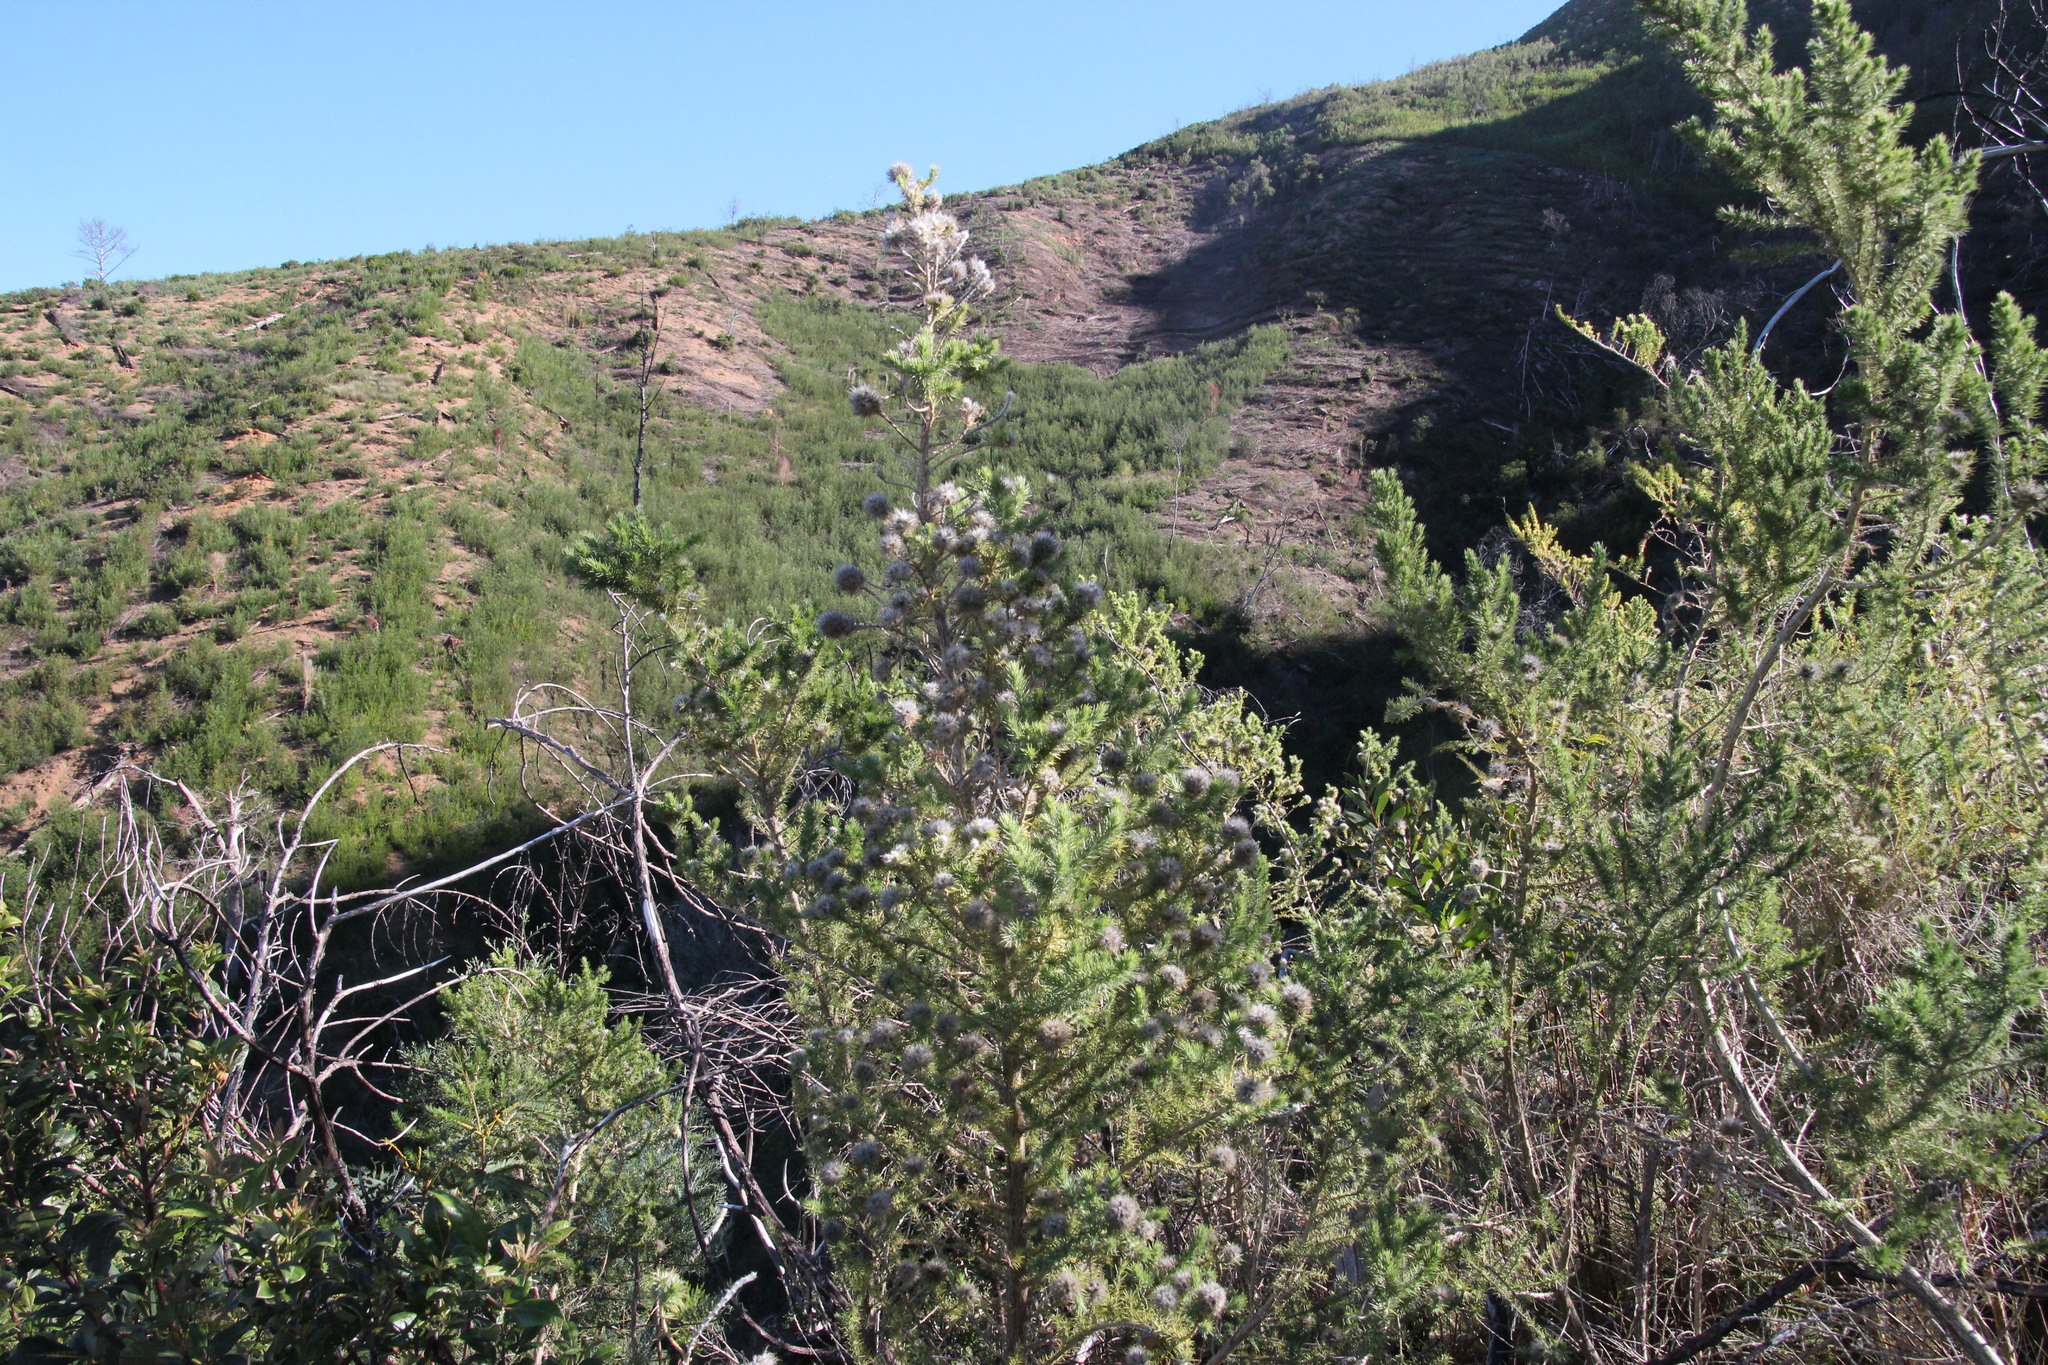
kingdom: Plantae
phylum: Tracheophyta
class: Magnoliopsida
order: Fabales
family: Fabaceae
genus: Aspalathus
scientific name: Aspalathus chenopoda
